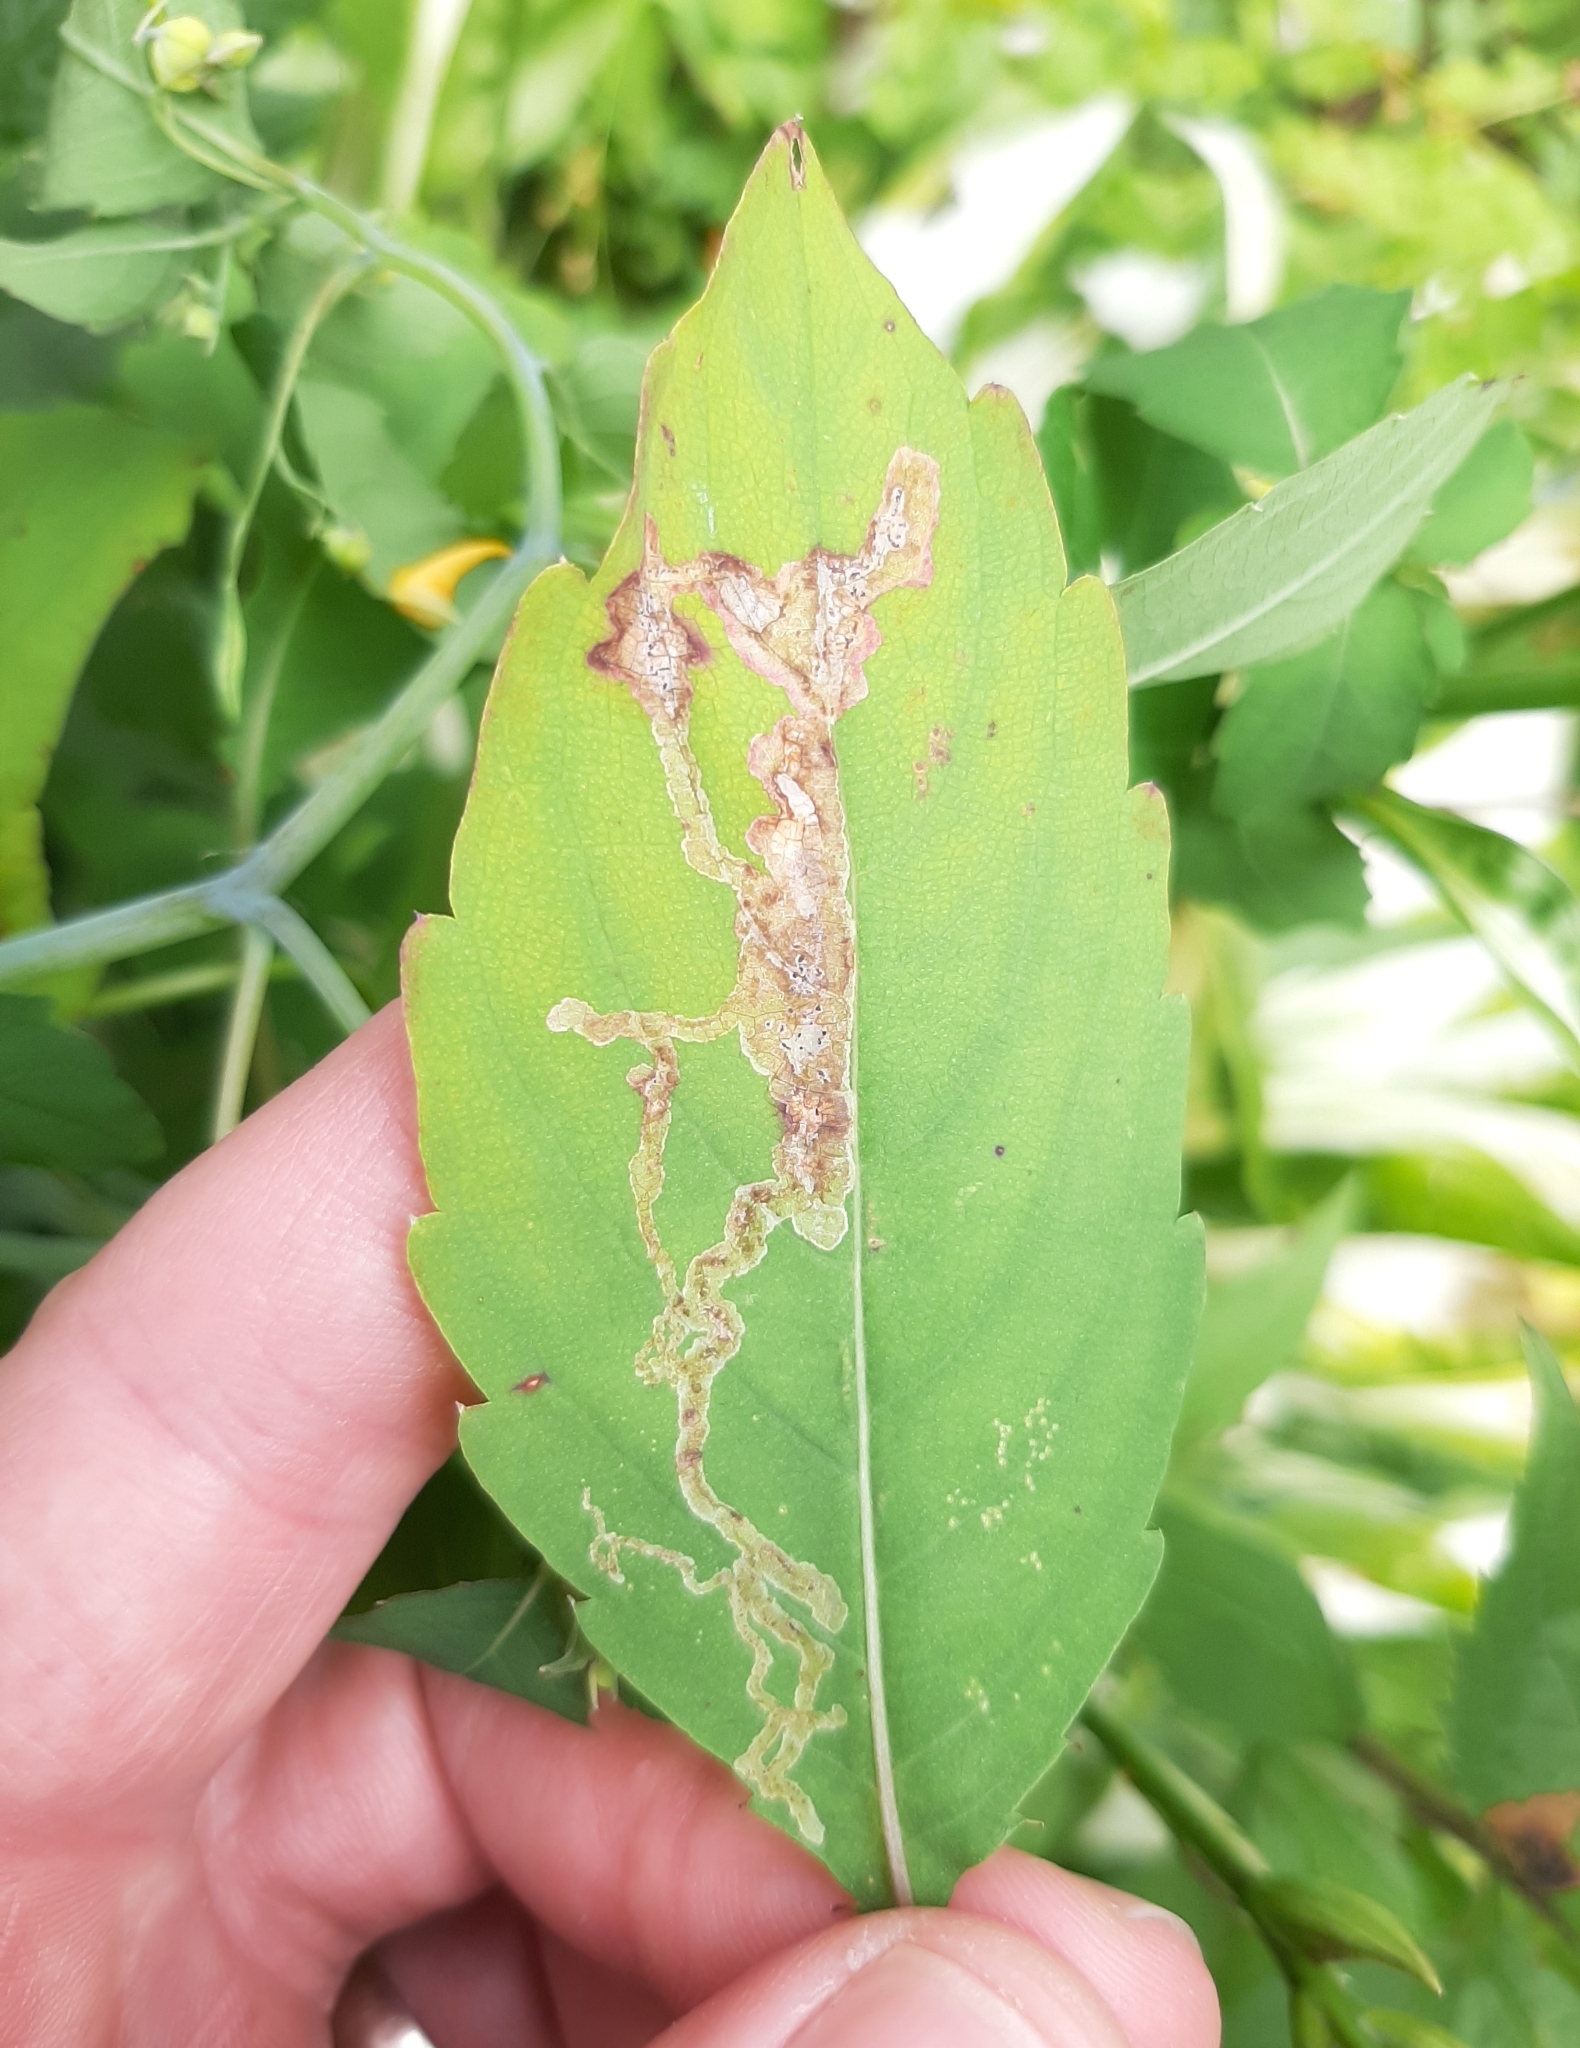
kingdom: Animalia
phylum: Arthropoda
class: Insecta
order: Diptera
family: Agromyzidae
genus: Phytoliriomyza
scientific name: Phytoliriomyza melampyga
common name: Jewelweed leaf-miner fly
